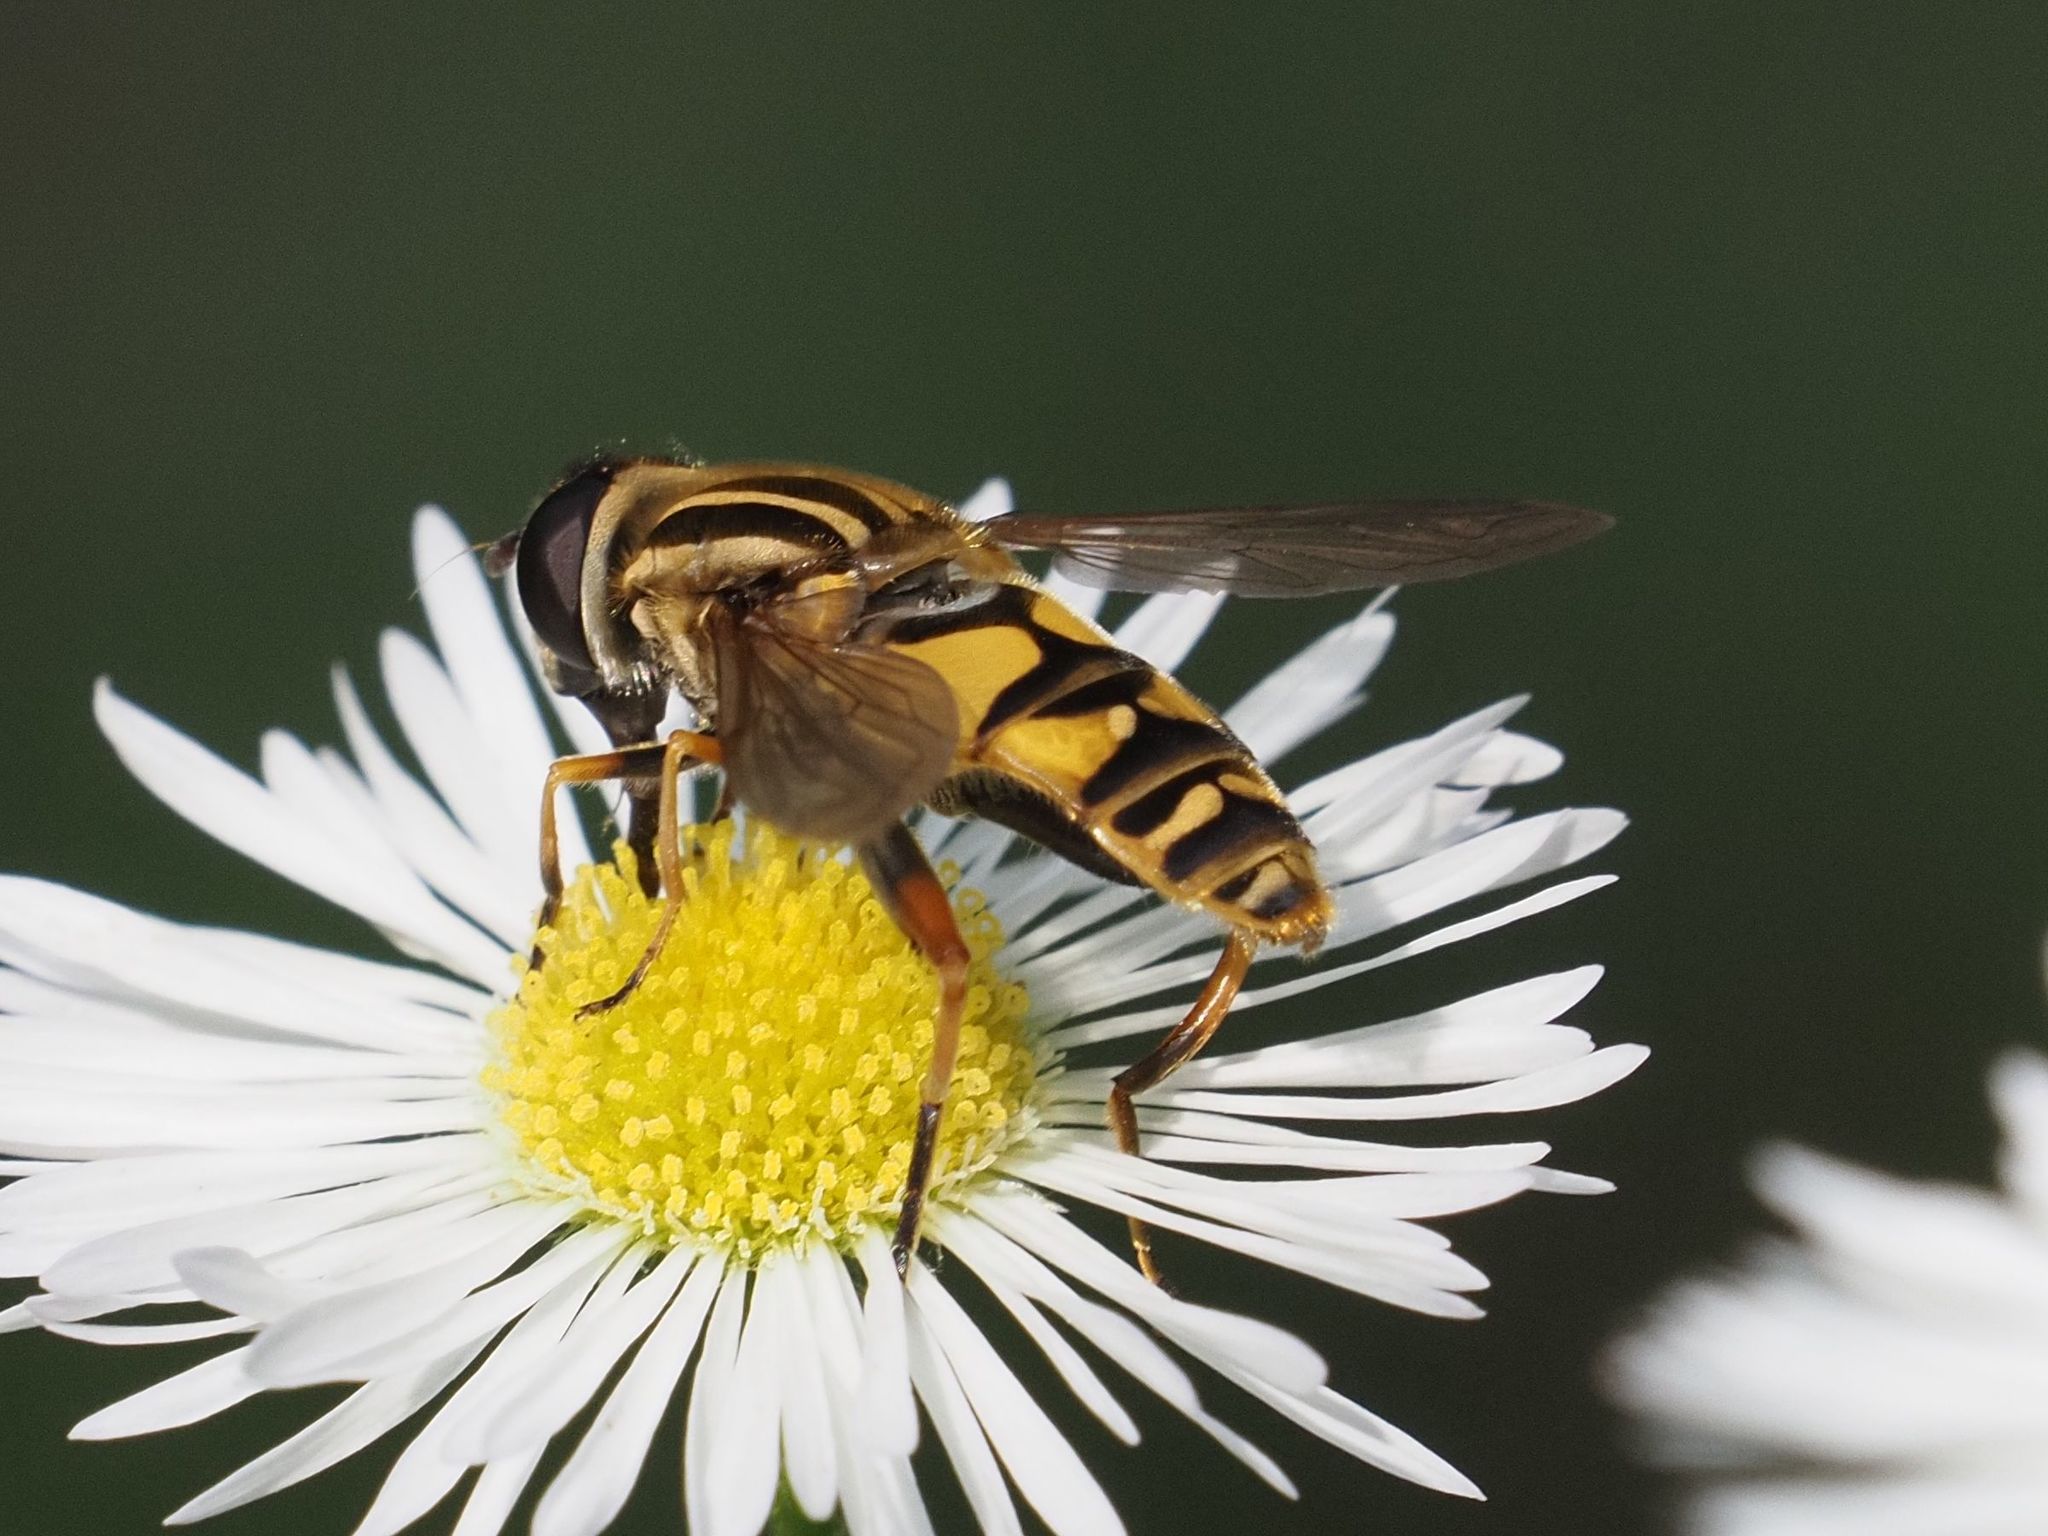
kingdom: Animalia
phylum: Arthropoda
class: Insecta
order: Diptera
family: Syrphidae
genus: Helophilus
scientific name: Helophilus pendulus
